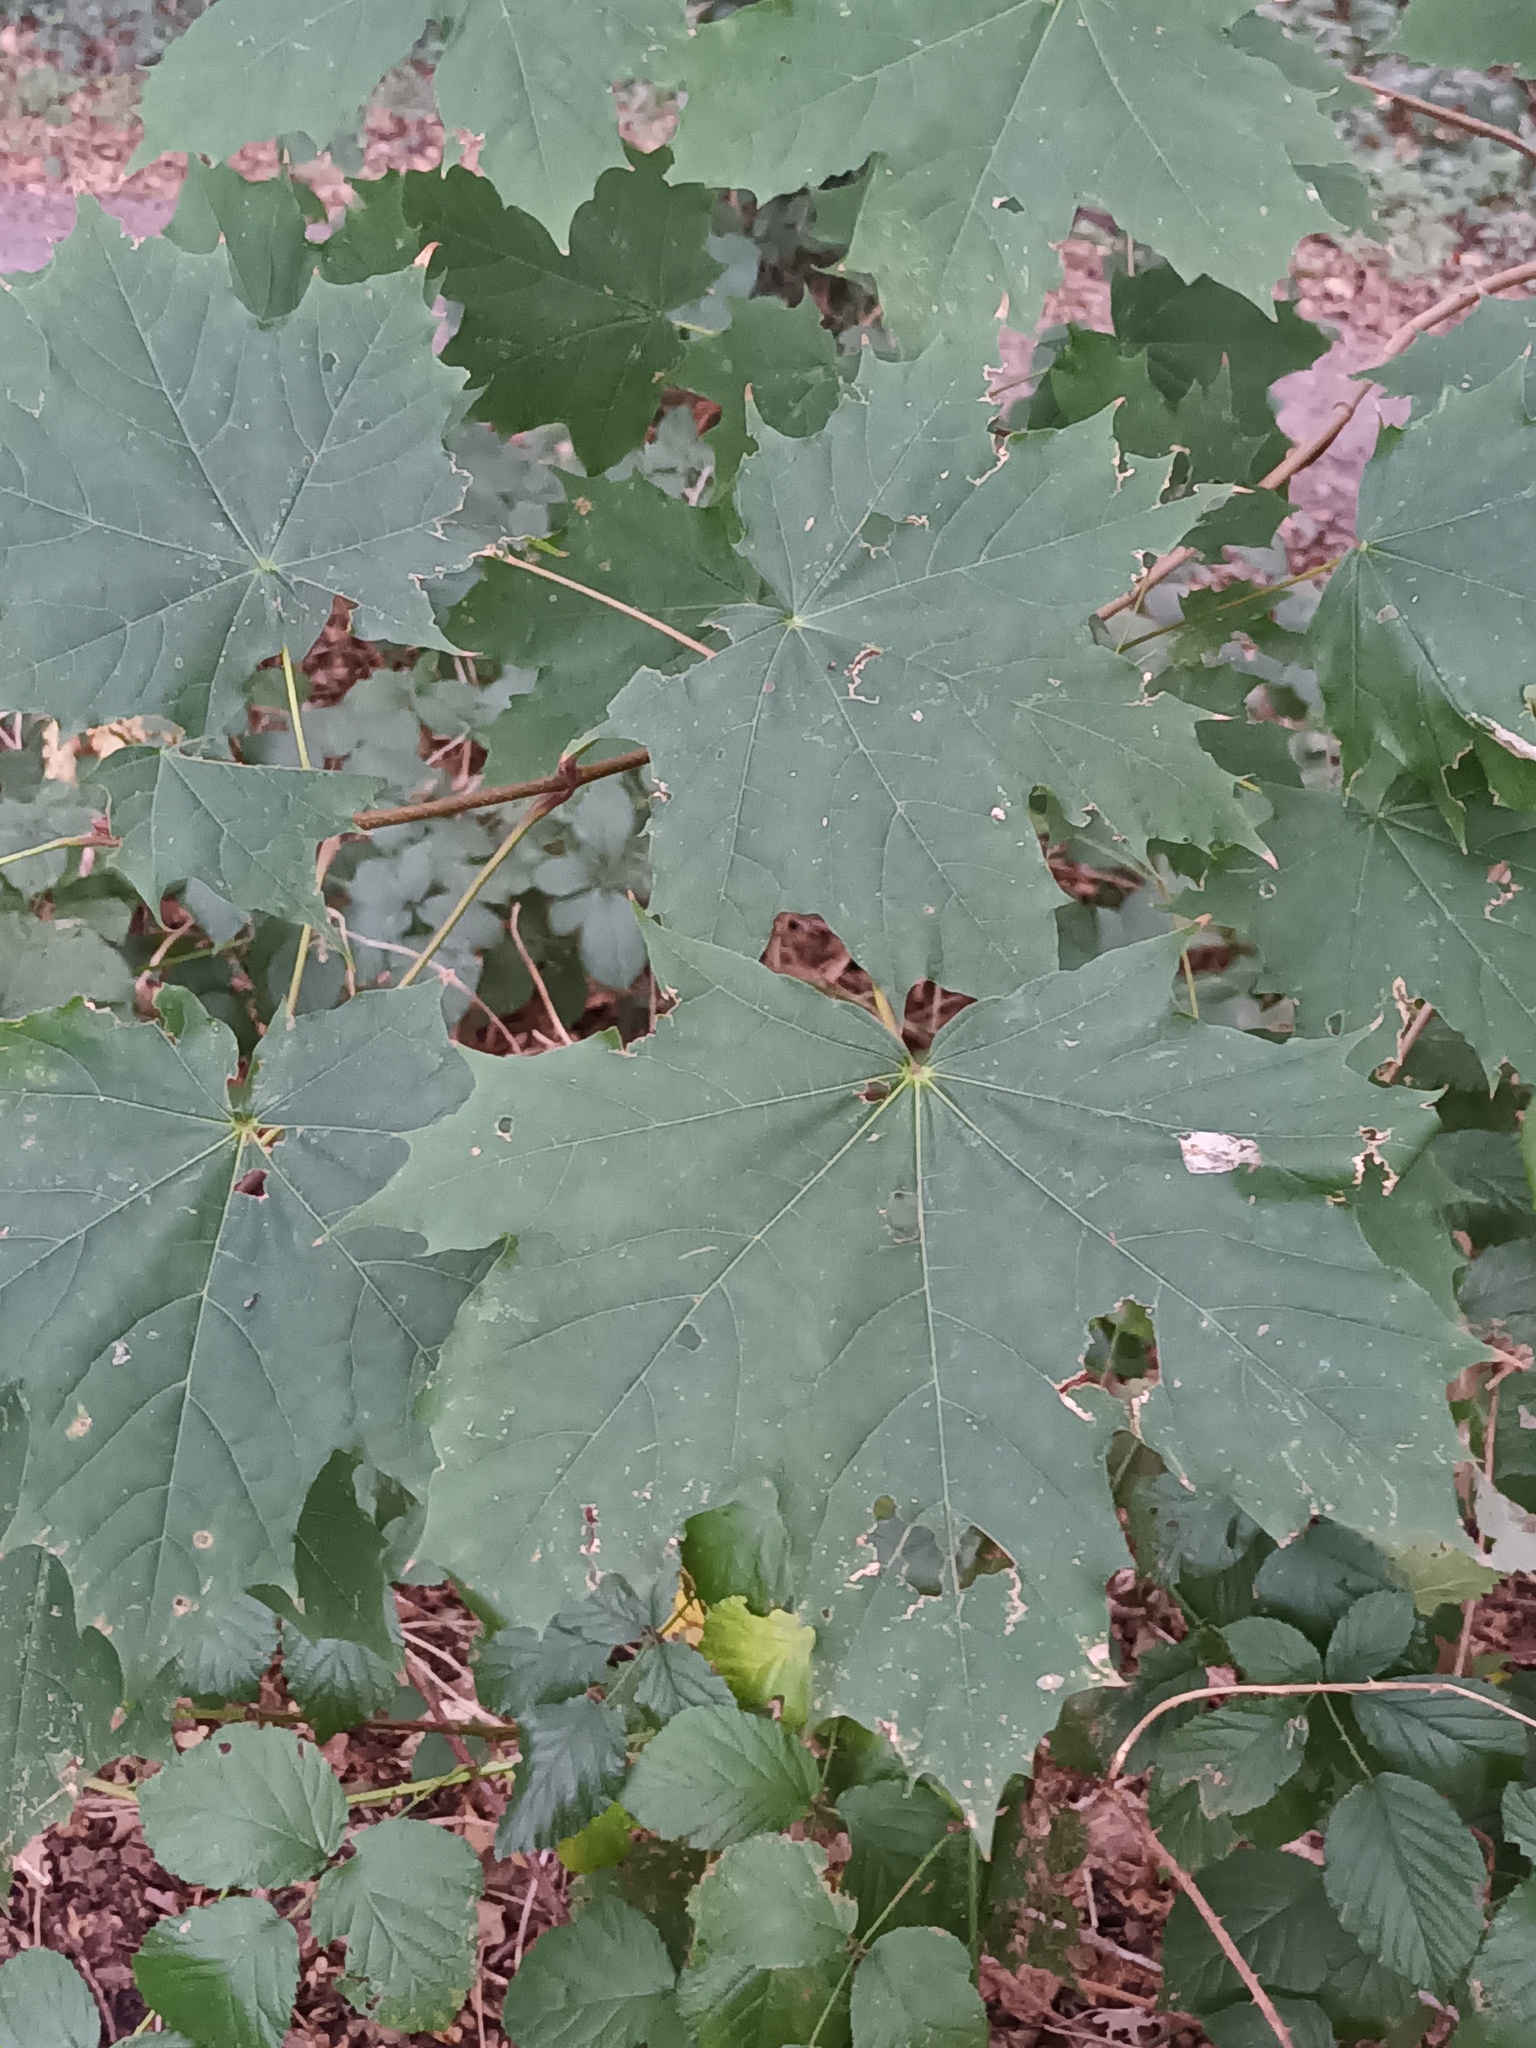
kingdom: Plantae
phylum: Tracheophyta
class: Magnoliopsida
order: Sapindales
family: Sapindaceae
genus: Acer
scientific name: Acer platanoides
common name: Norway maple
